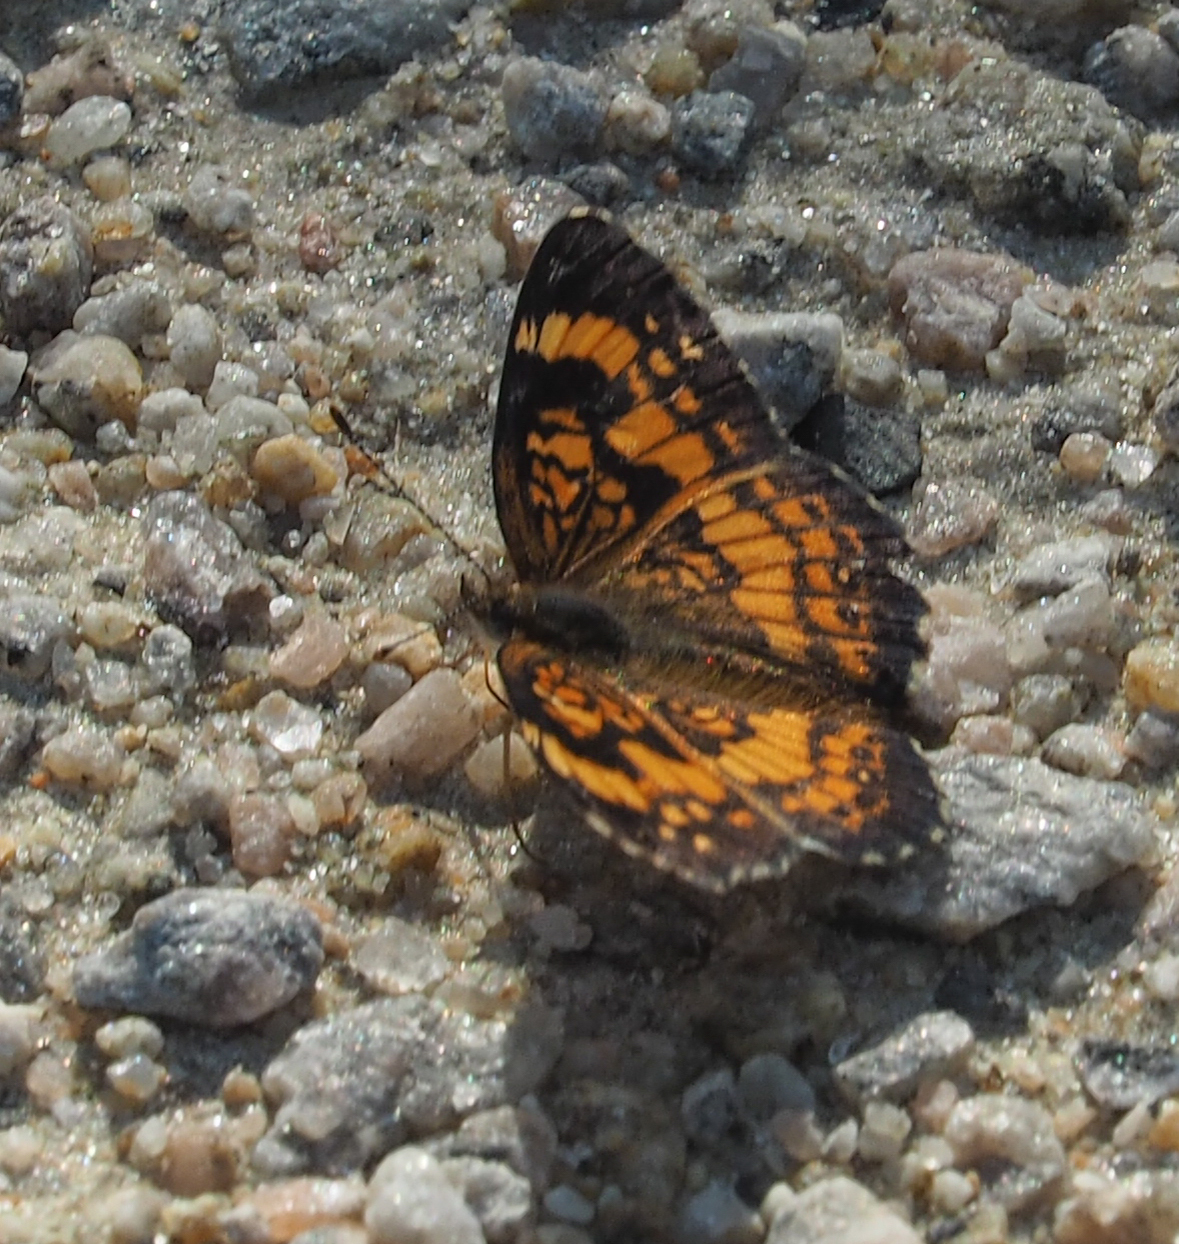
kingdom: Animalia
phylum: Arthropoda
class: Insecta
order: Lepidoptera
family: Nymphalidae
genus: Chlosyne
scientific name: Chlosyne nycteis
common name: Silvery checkerspot
